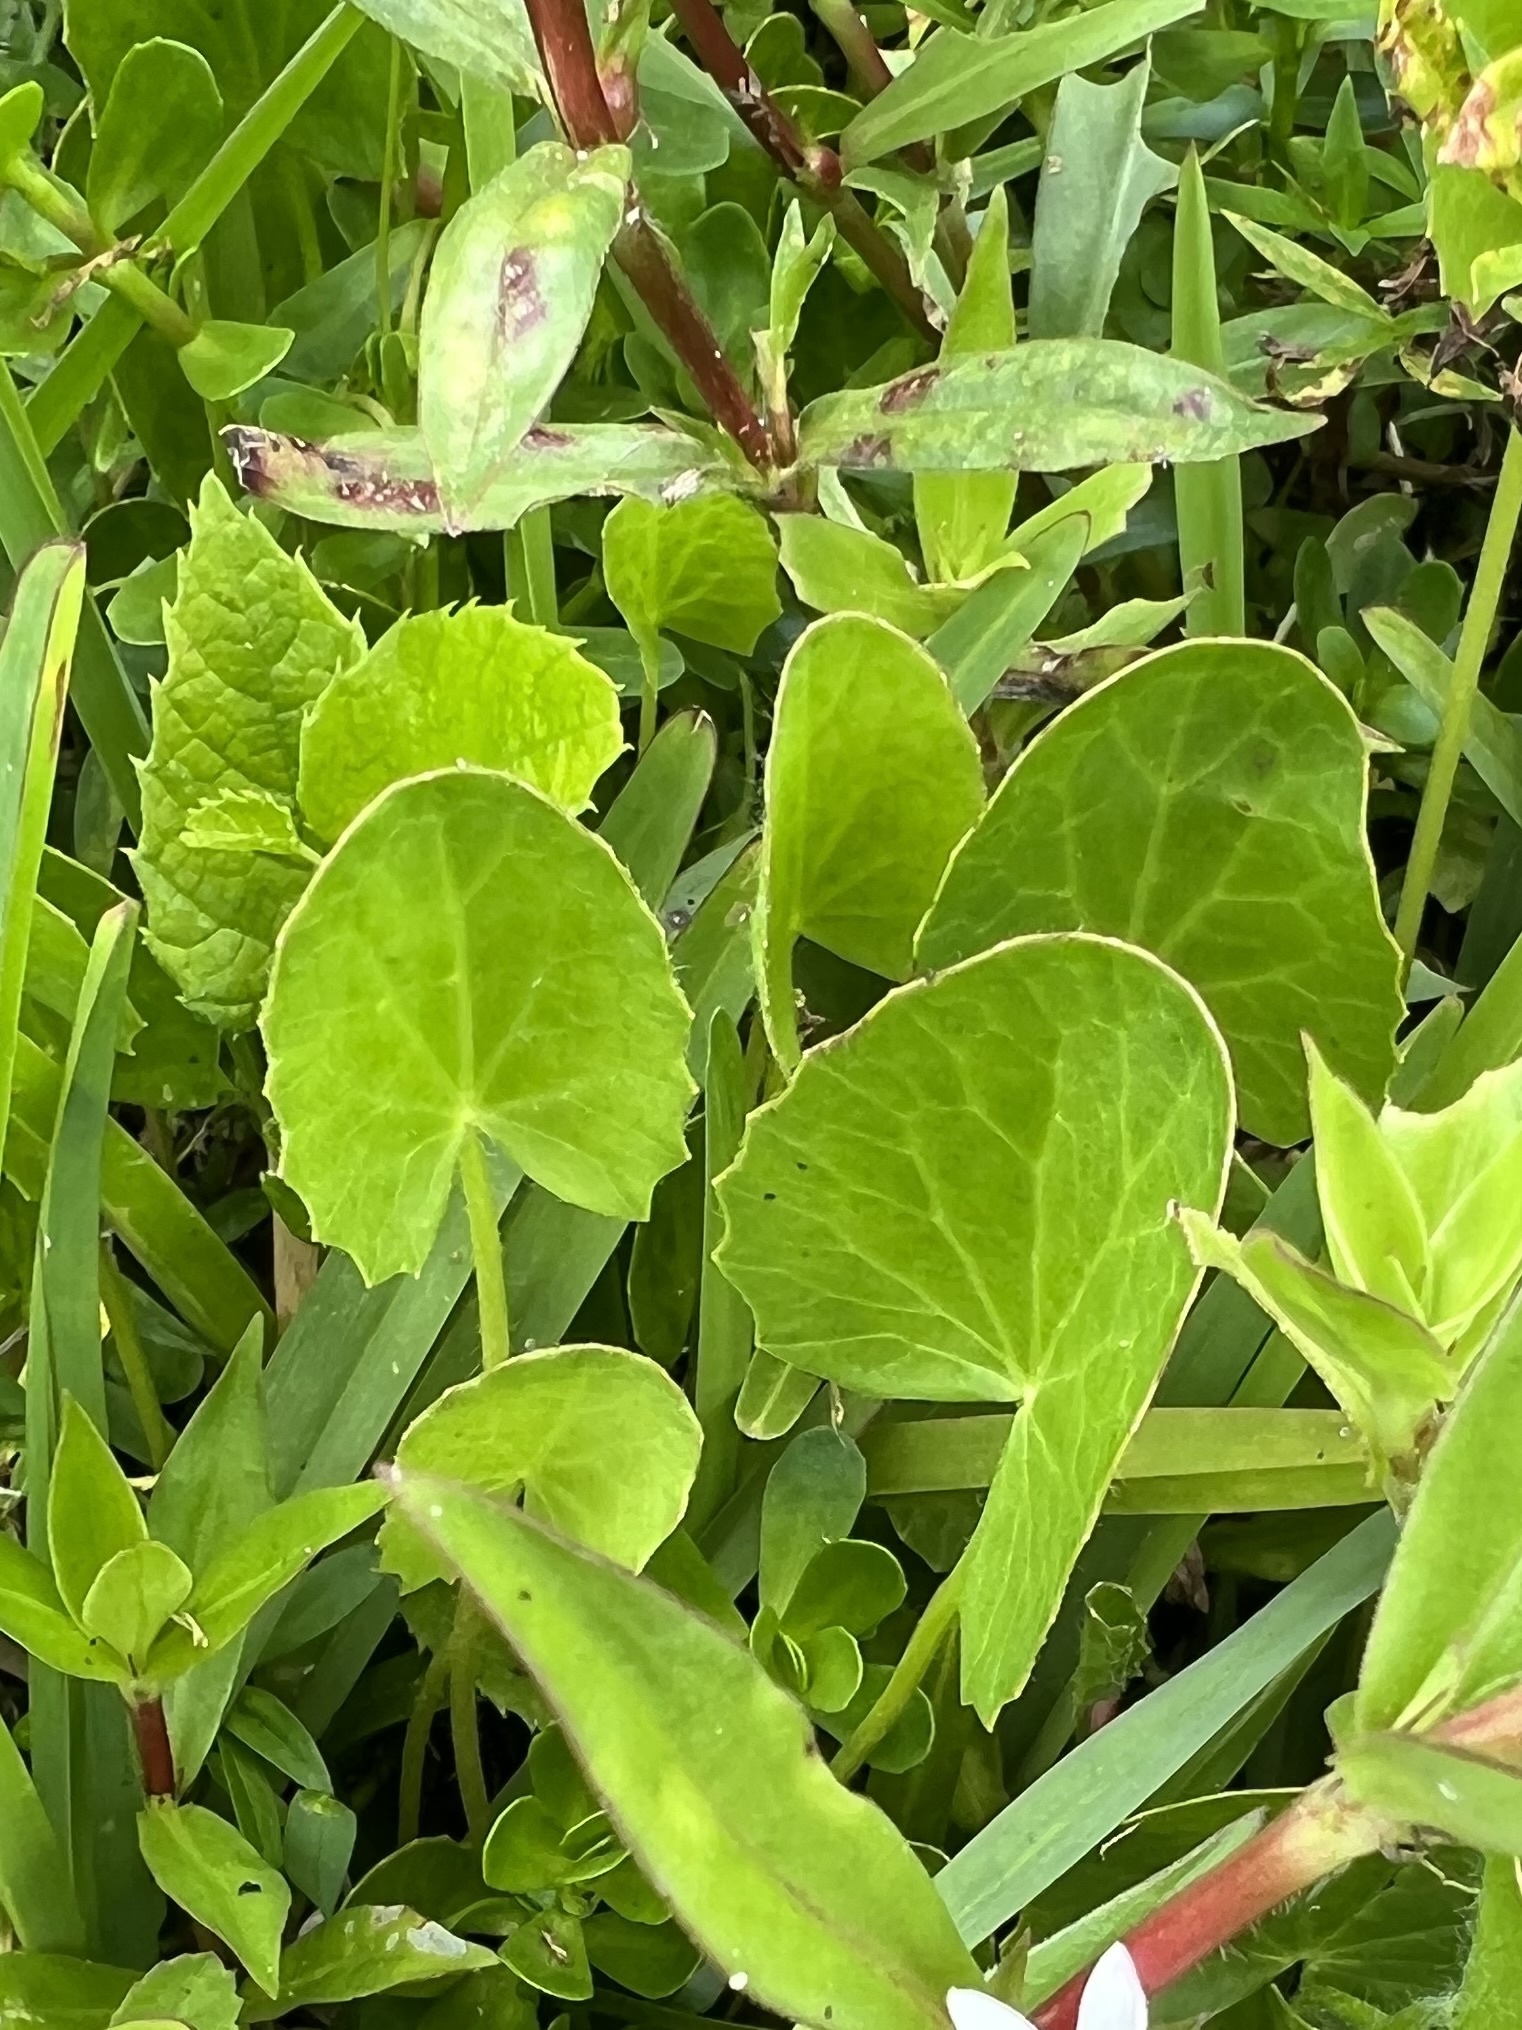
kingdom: Plantae
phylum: Tracheophyta
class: Magnoliopsida
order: Apiales
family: Apiaceae
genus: Centella
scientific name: Centella erecta
